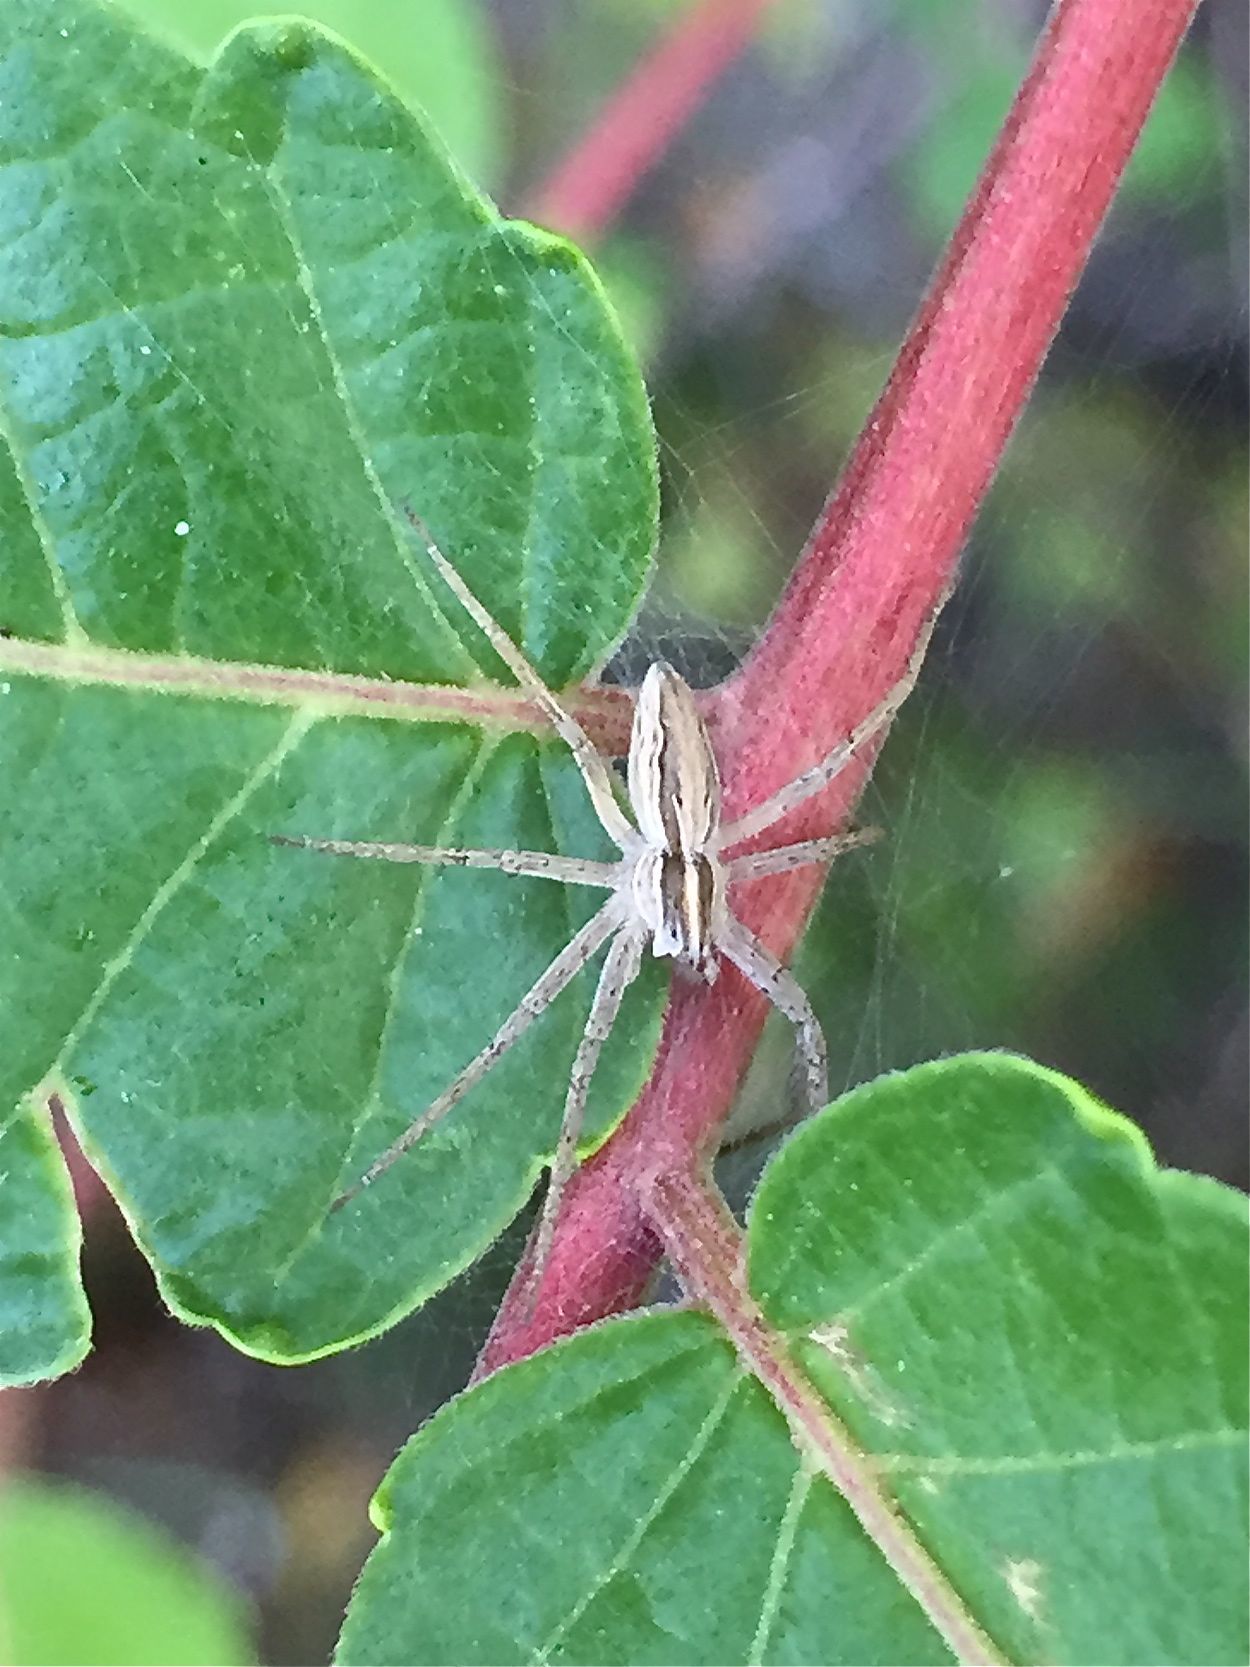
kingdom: Animalia
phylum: Arthropoda
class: Arachnida
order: Araneae
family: Pisauridae
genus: Pisaura
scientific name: Pisaura
